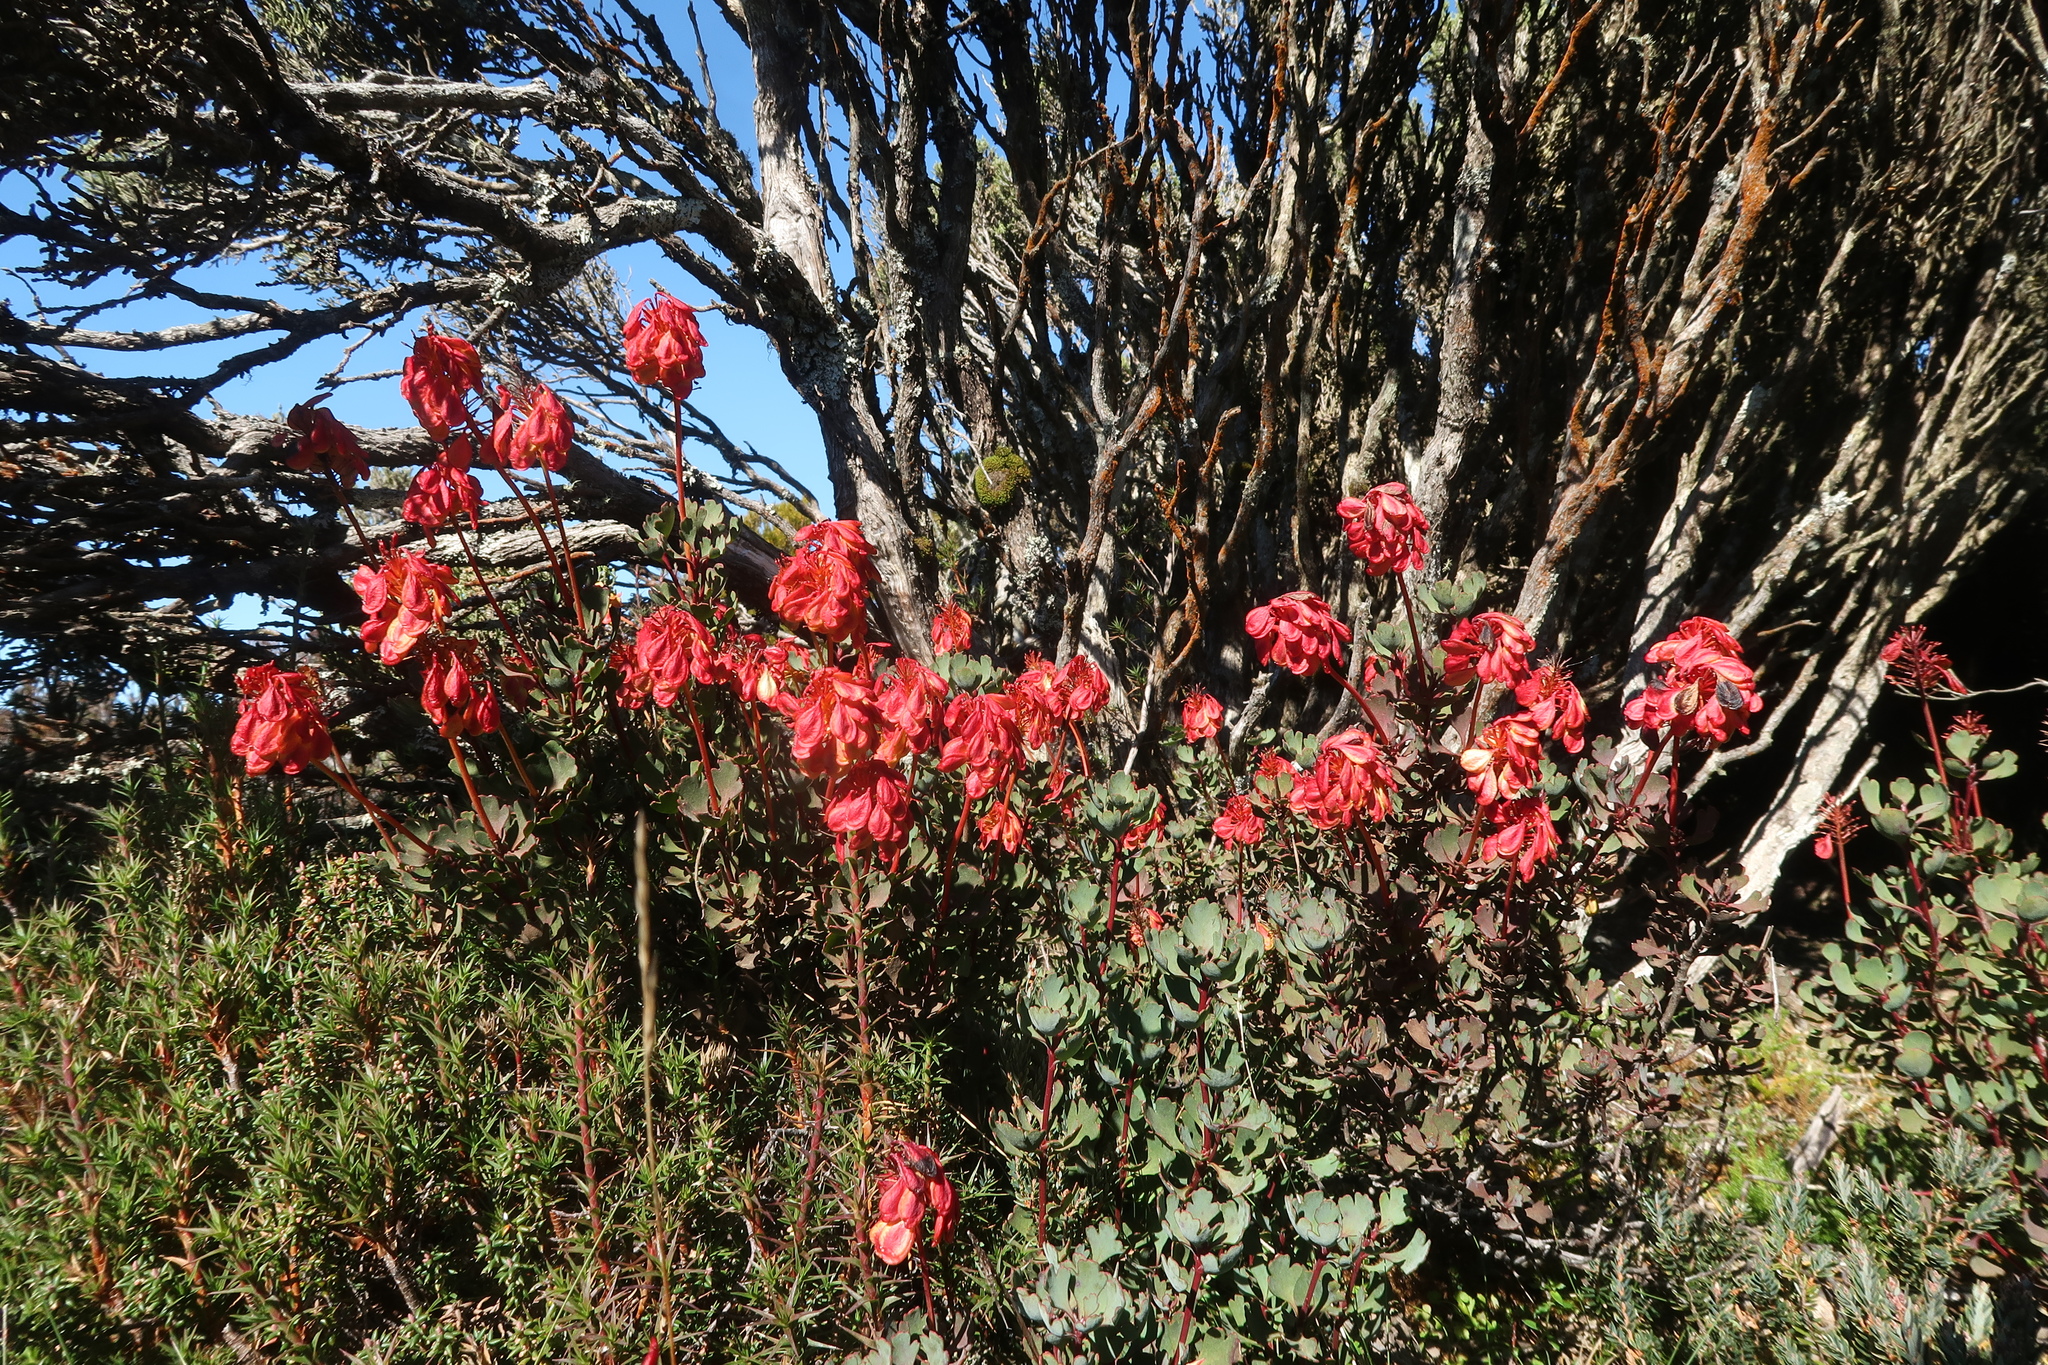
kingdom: Plantae
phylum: Tracheophyta
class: Magnoliopsida
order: Proteales
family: Proteaceae
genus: Bellendena
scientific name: Bellendena montana
